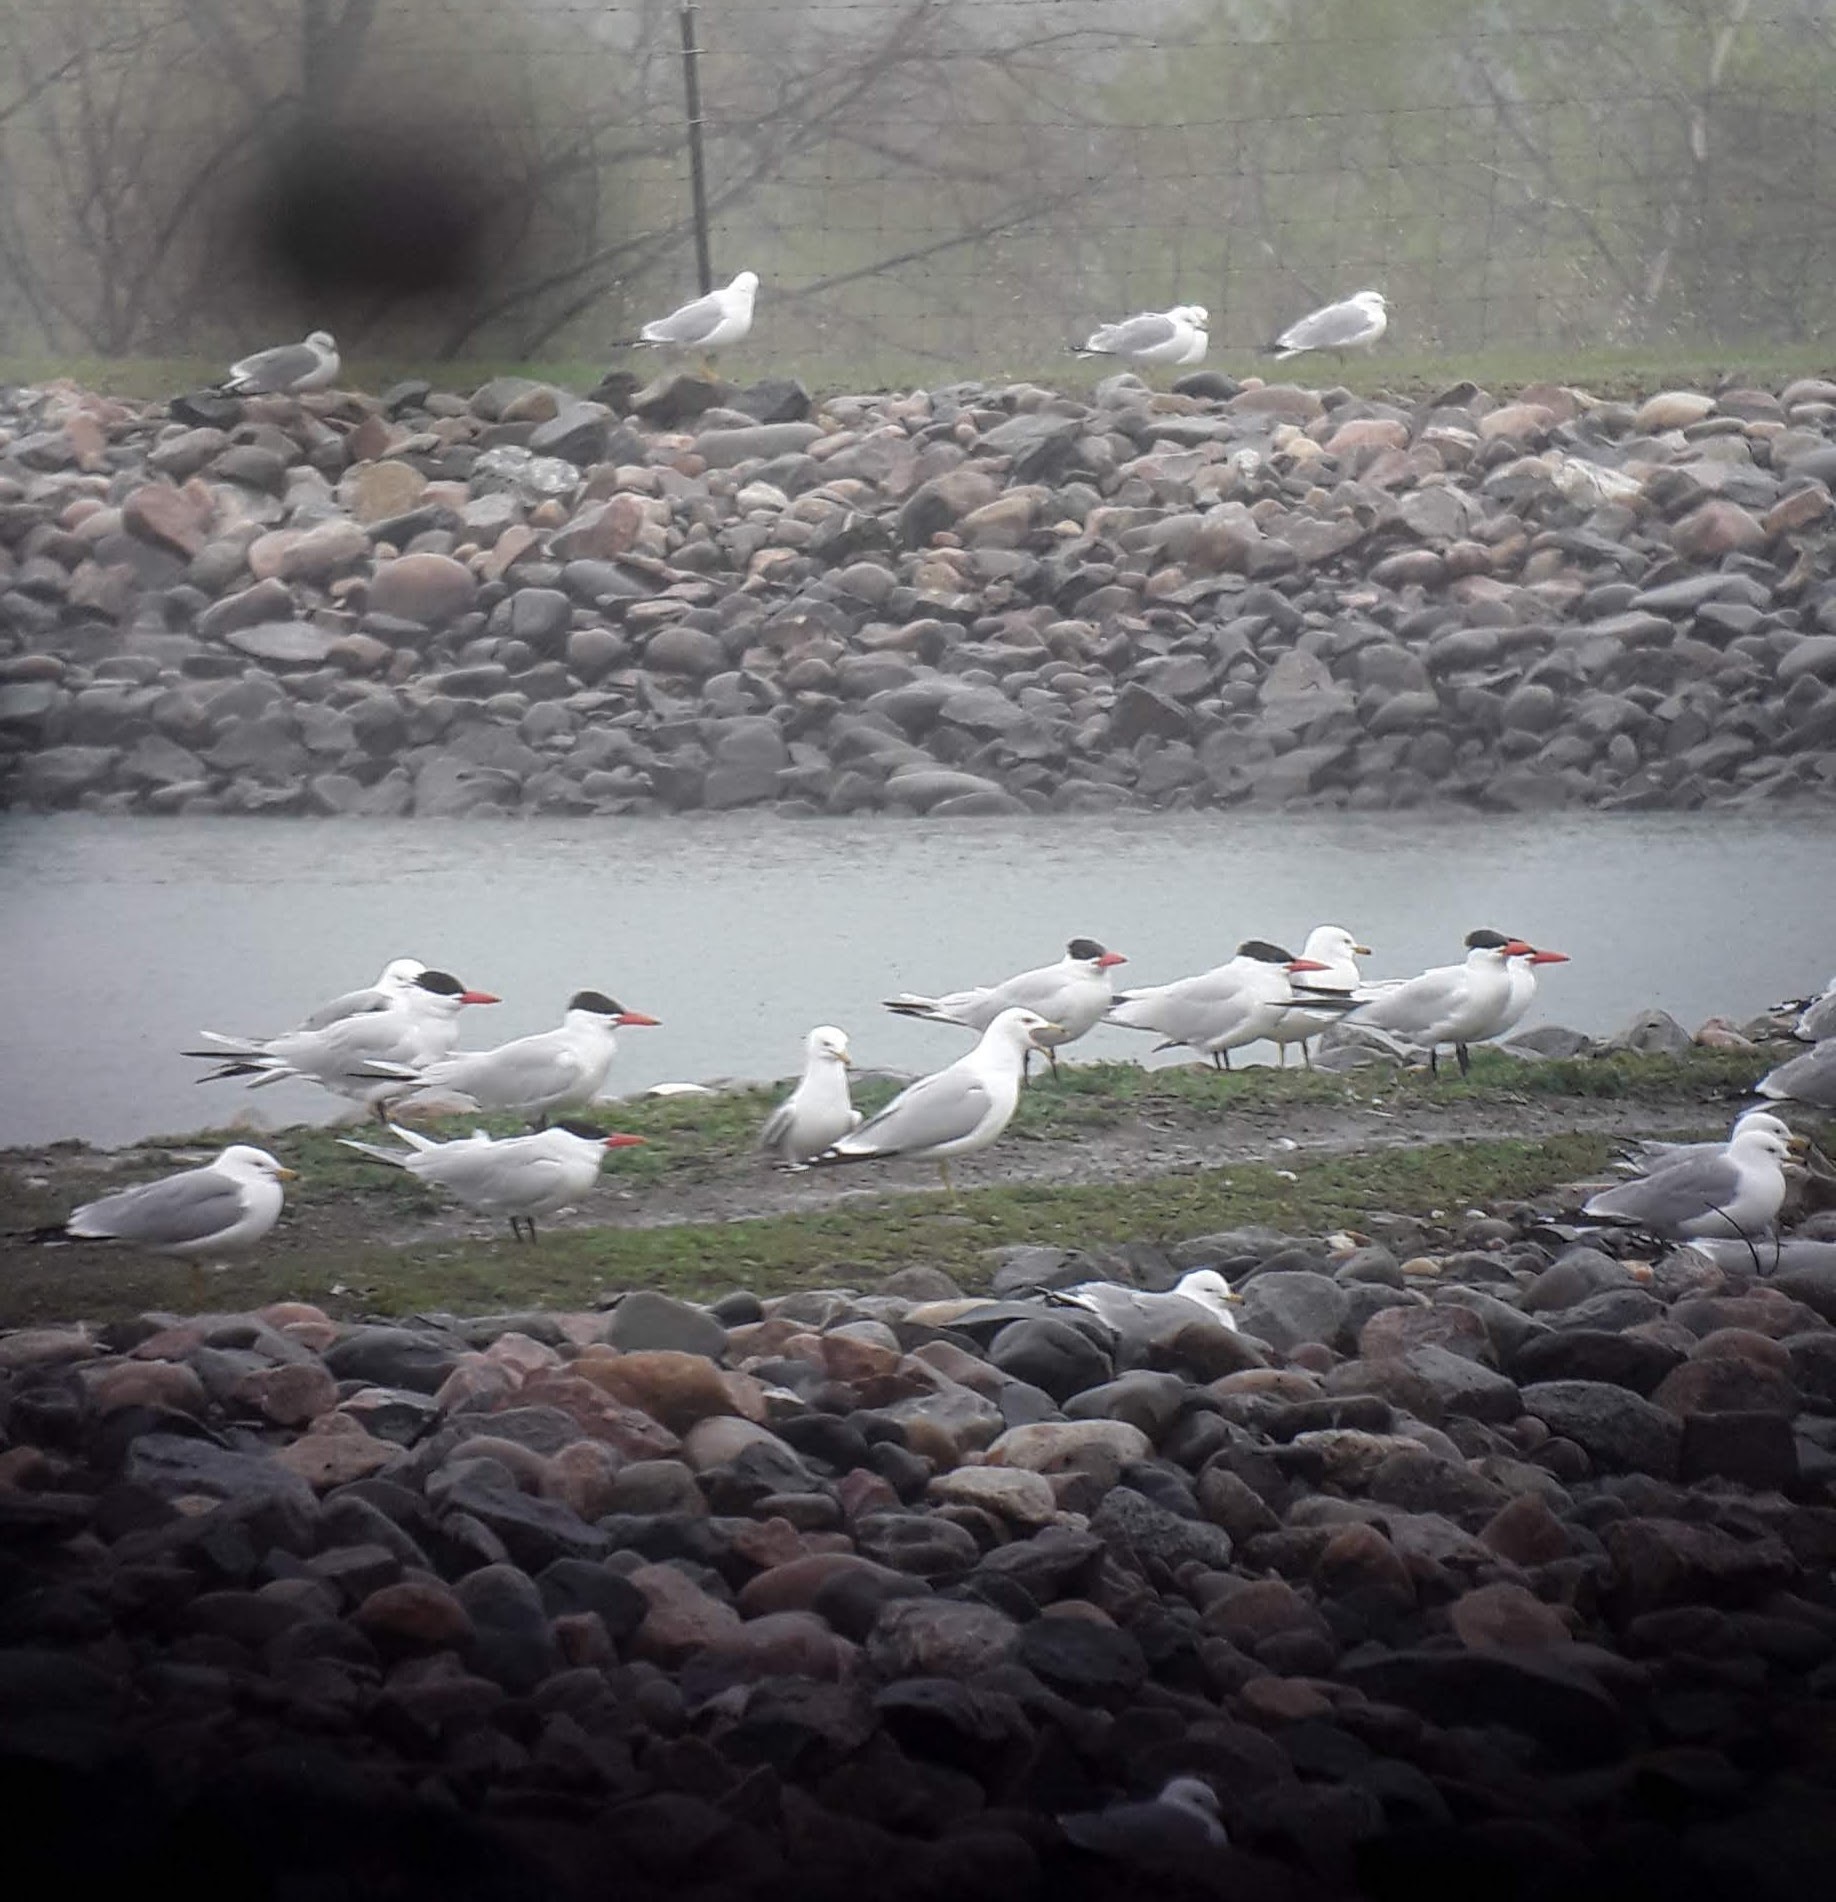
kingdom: Animalia
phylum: Chordata
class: Aves
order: Charadriiformes
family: Laridae
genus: Hydroprogne
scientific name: Hydroprogne caspia
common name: Caspian tern
